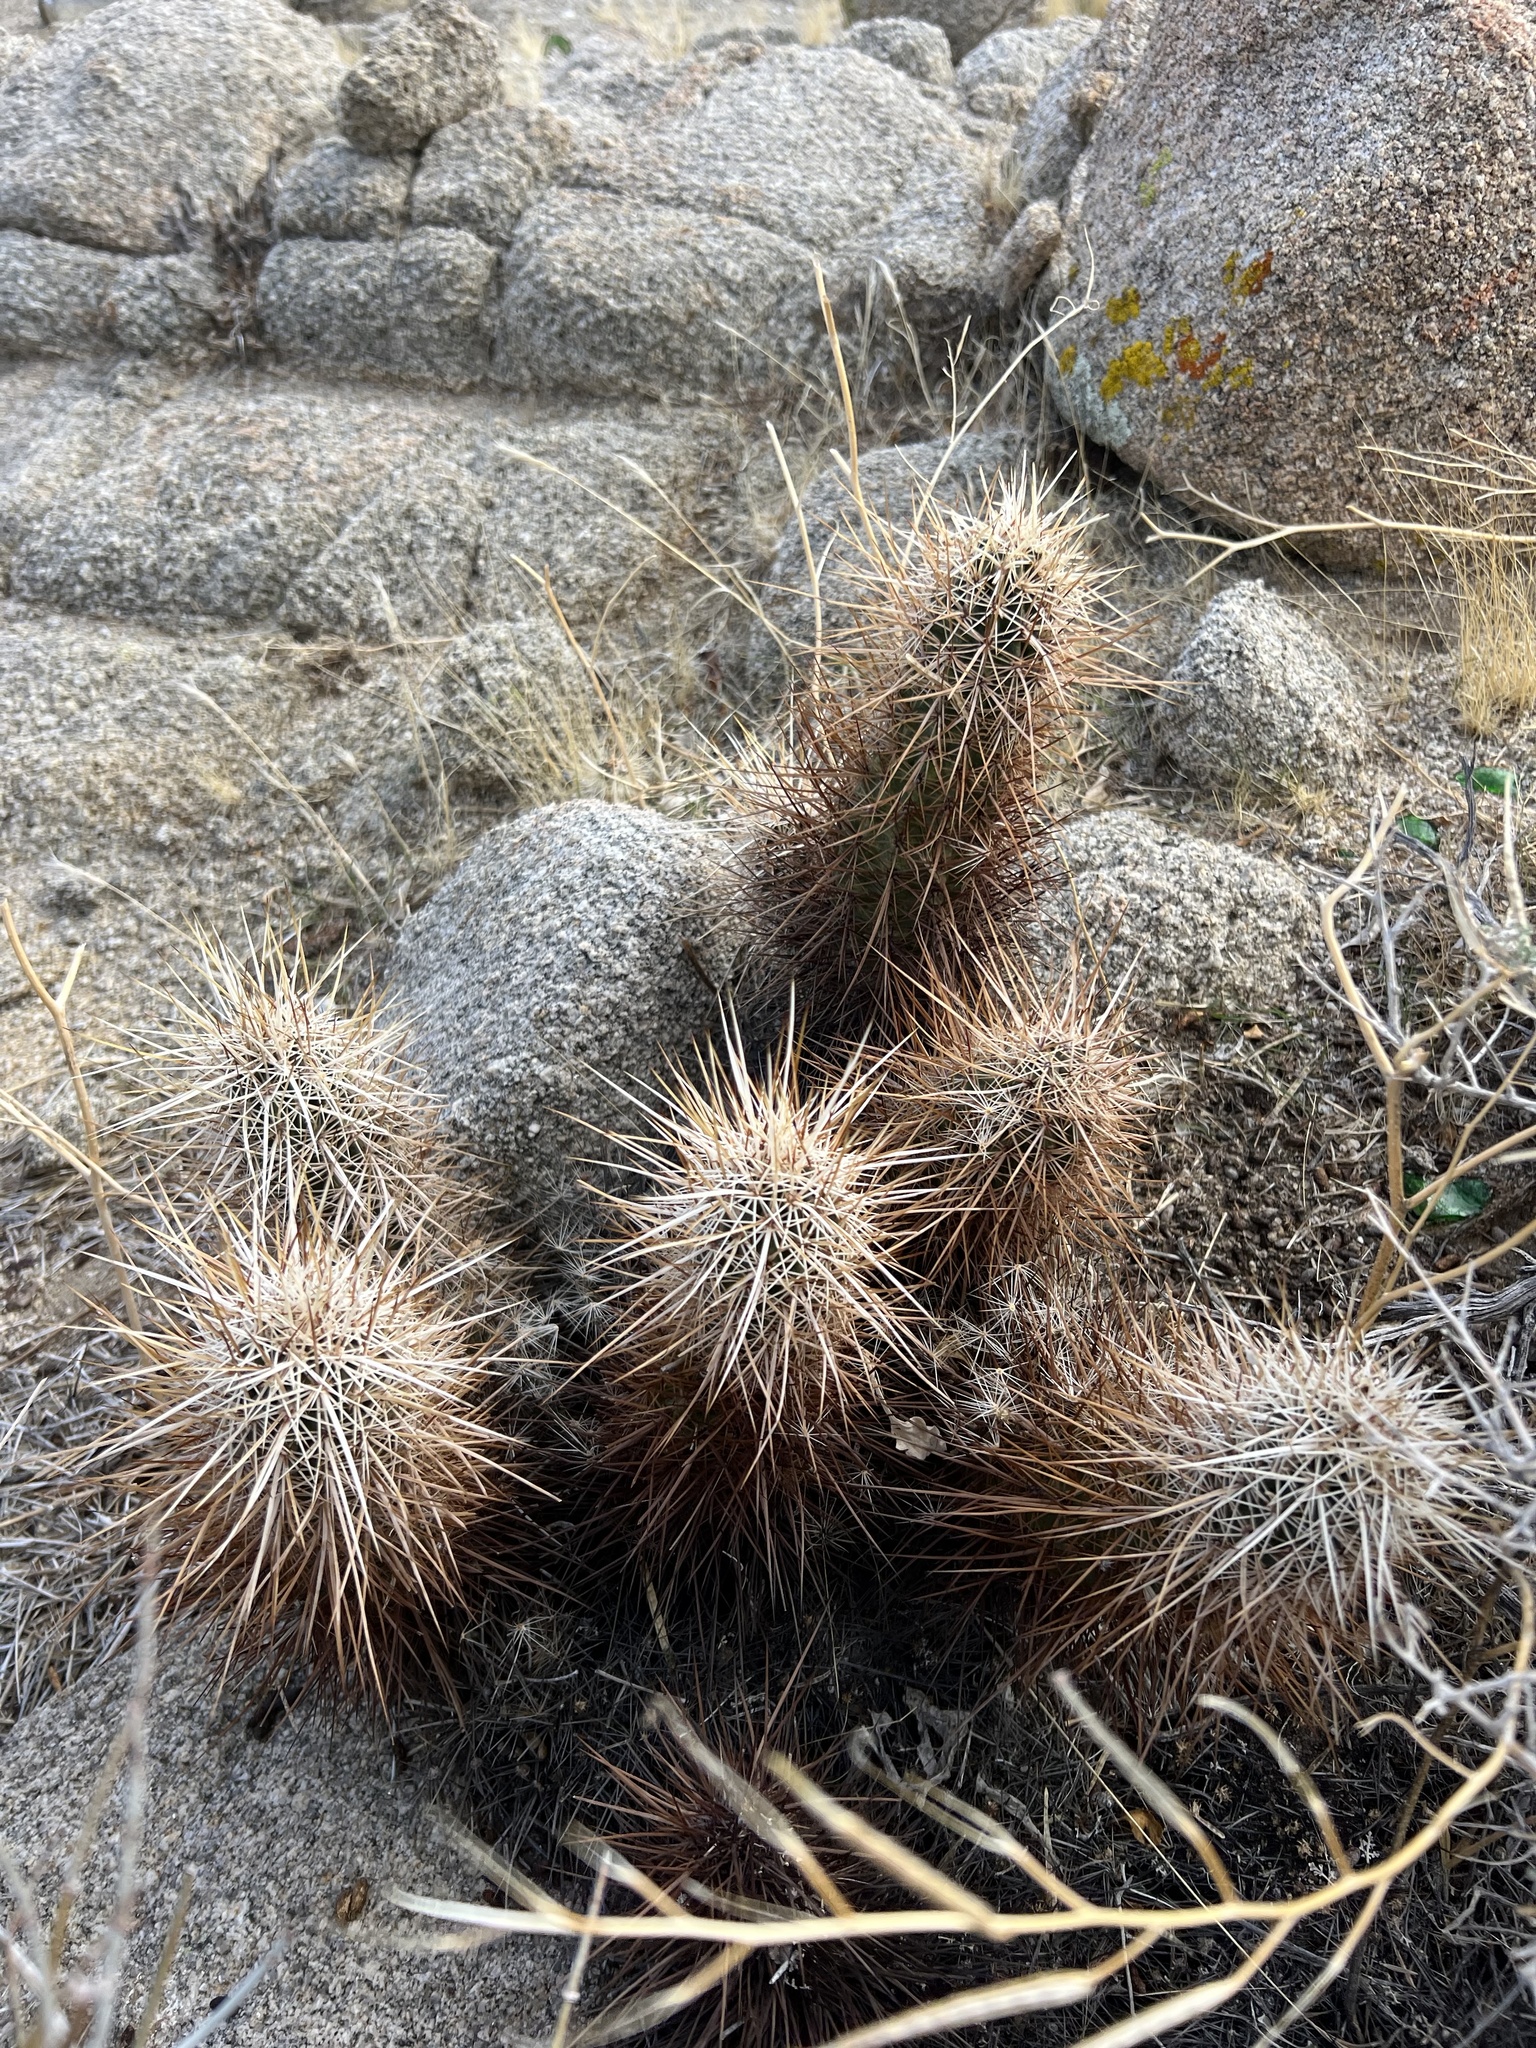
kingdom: Plantae
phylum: Tracheophyta
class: Magnoliopsida
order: Caryophyllales
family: Cactaceae
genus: Echinocereus
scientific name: Echinocereus engelmannii
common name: Engelmann's hedgehog cactus
